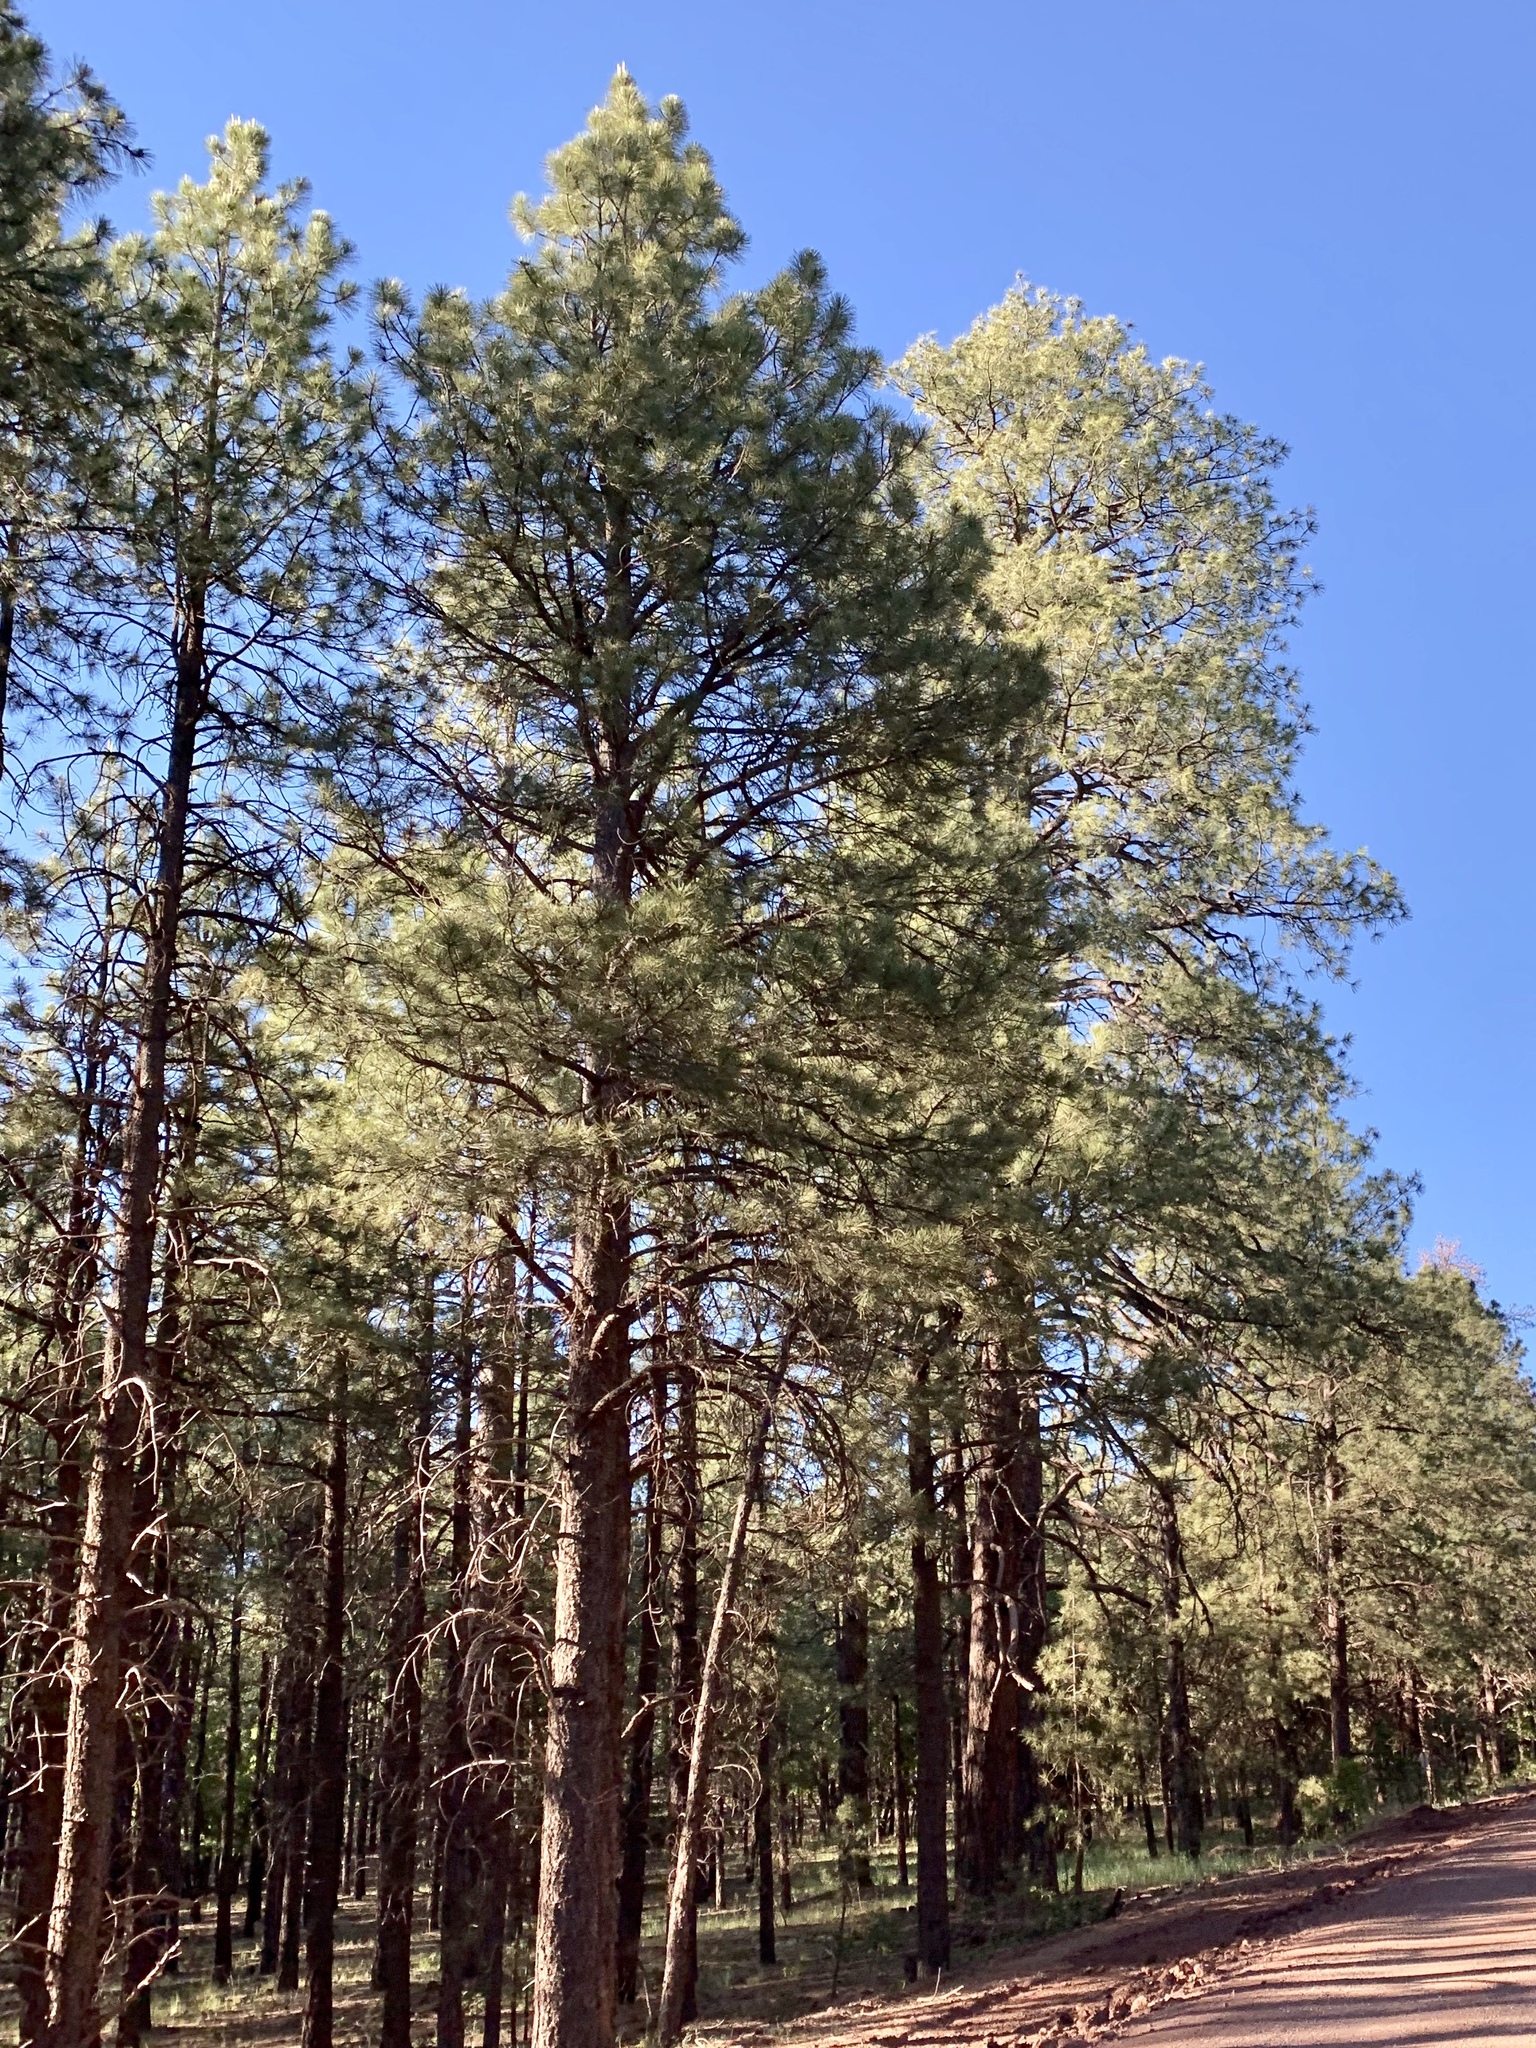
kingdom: Plantae
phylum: Tracheophyta
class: Pinopsida
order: Pinales
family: Pinaceae
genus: Pinus
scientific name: Pinus ponderosa
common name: Western yellow-pine
